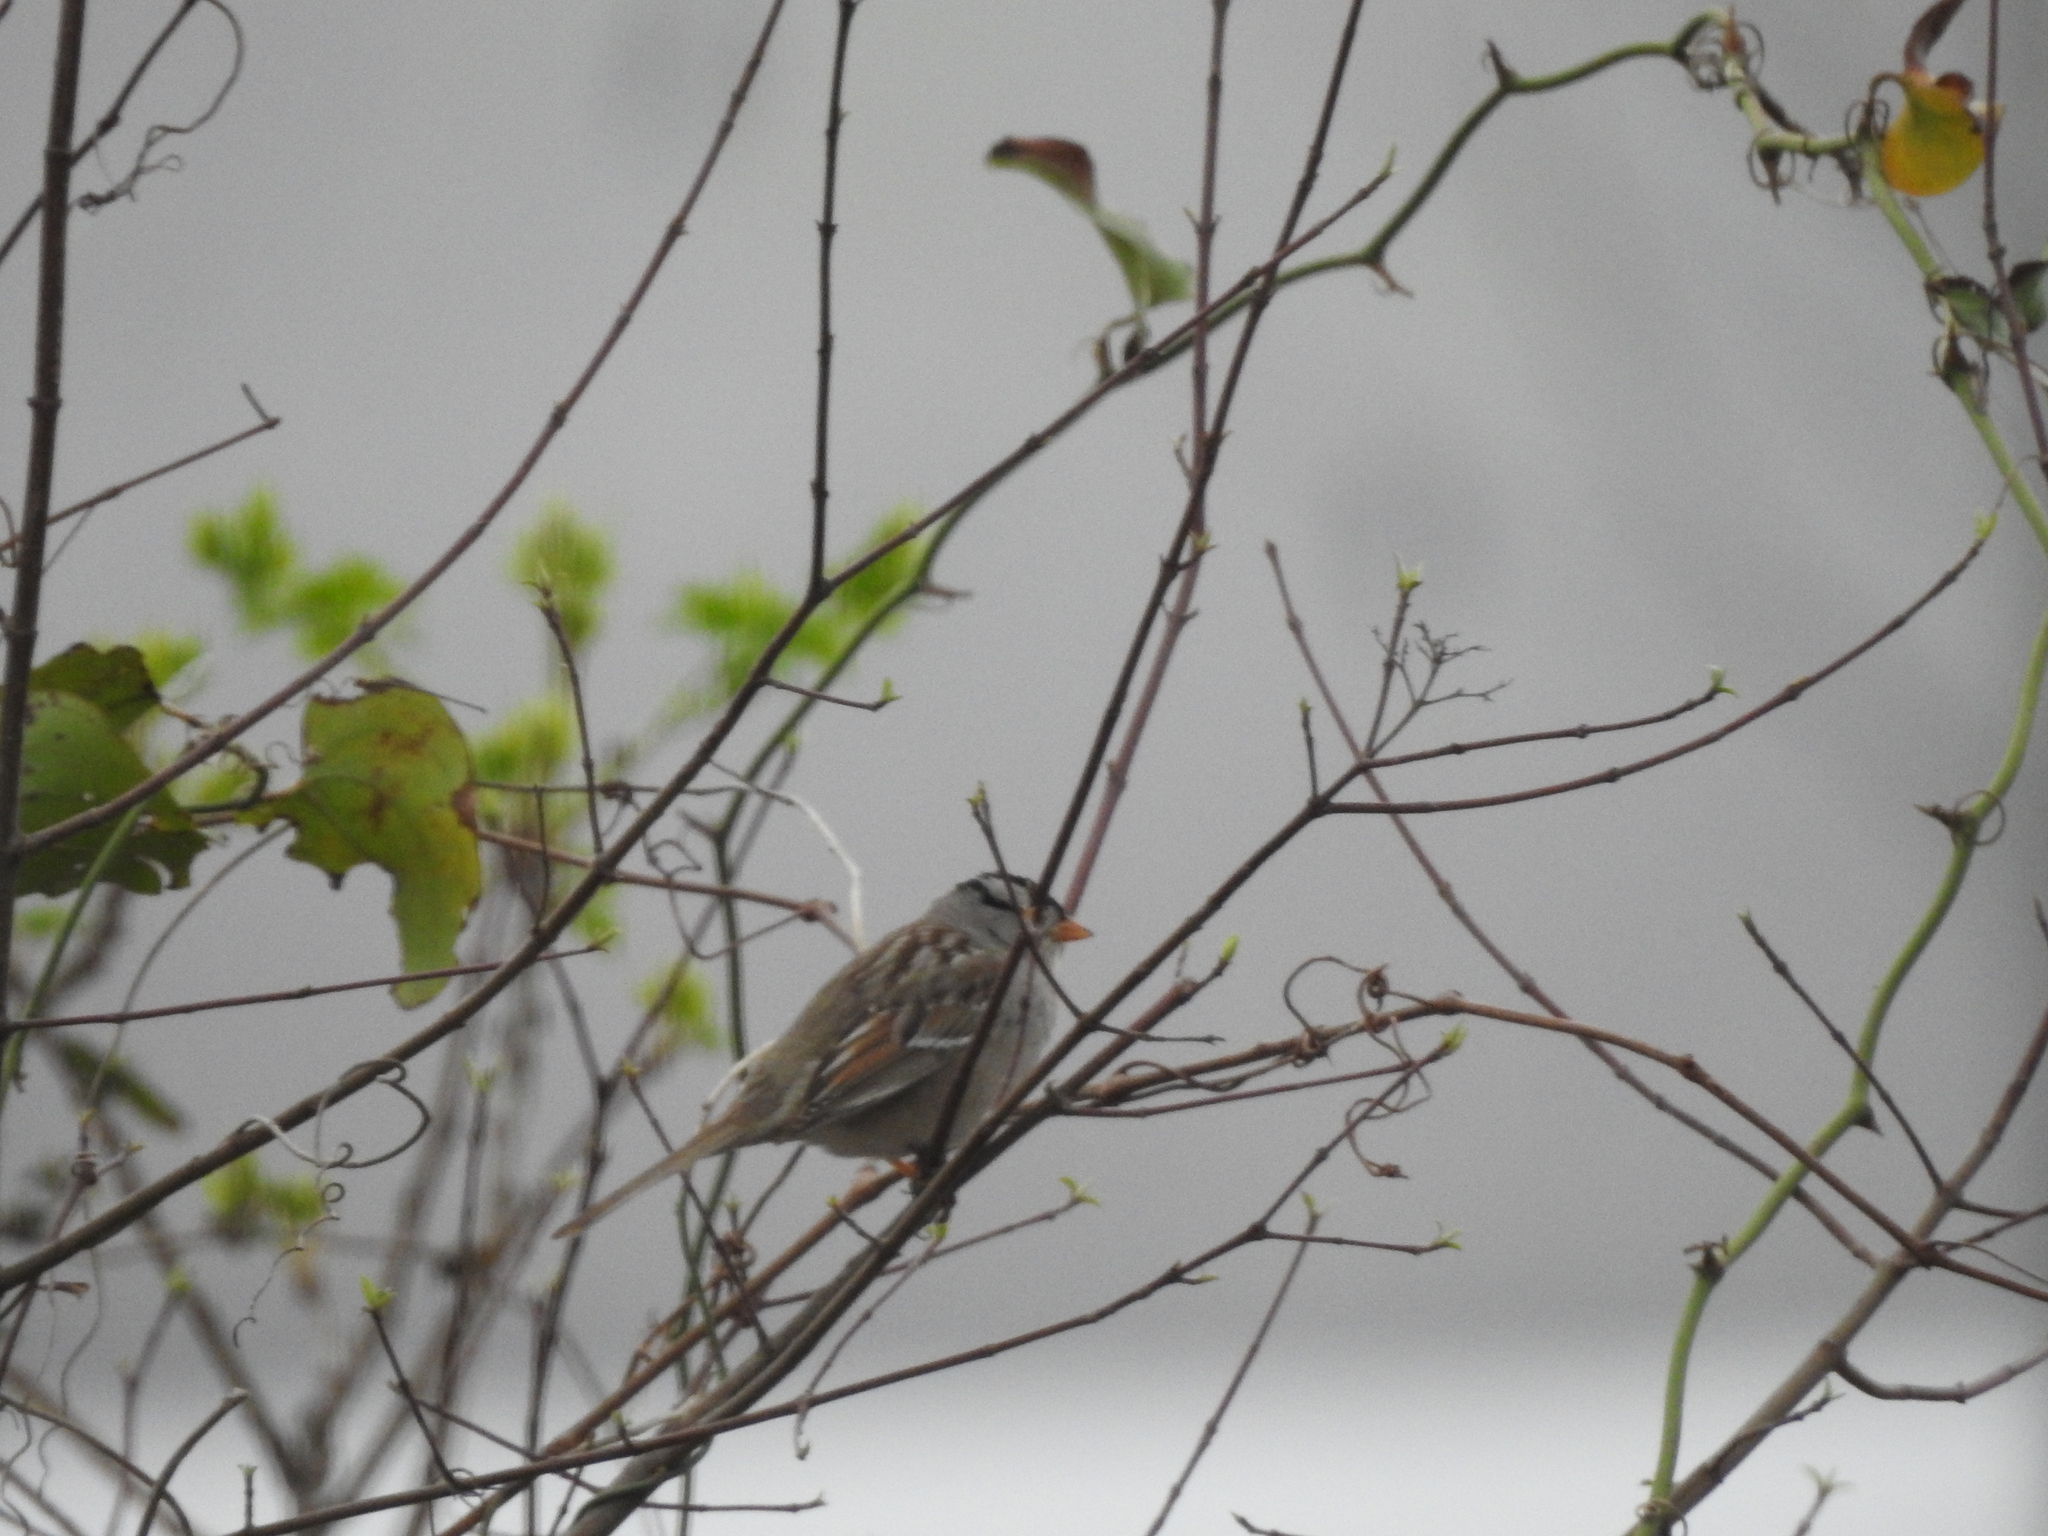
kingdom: Animalia
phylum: Chordata
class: Aves
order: Passeriformes
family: Passerellidae
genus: Zonotrichia
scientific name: Zonotrichia leucophrys
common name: White-crowned sparrow
